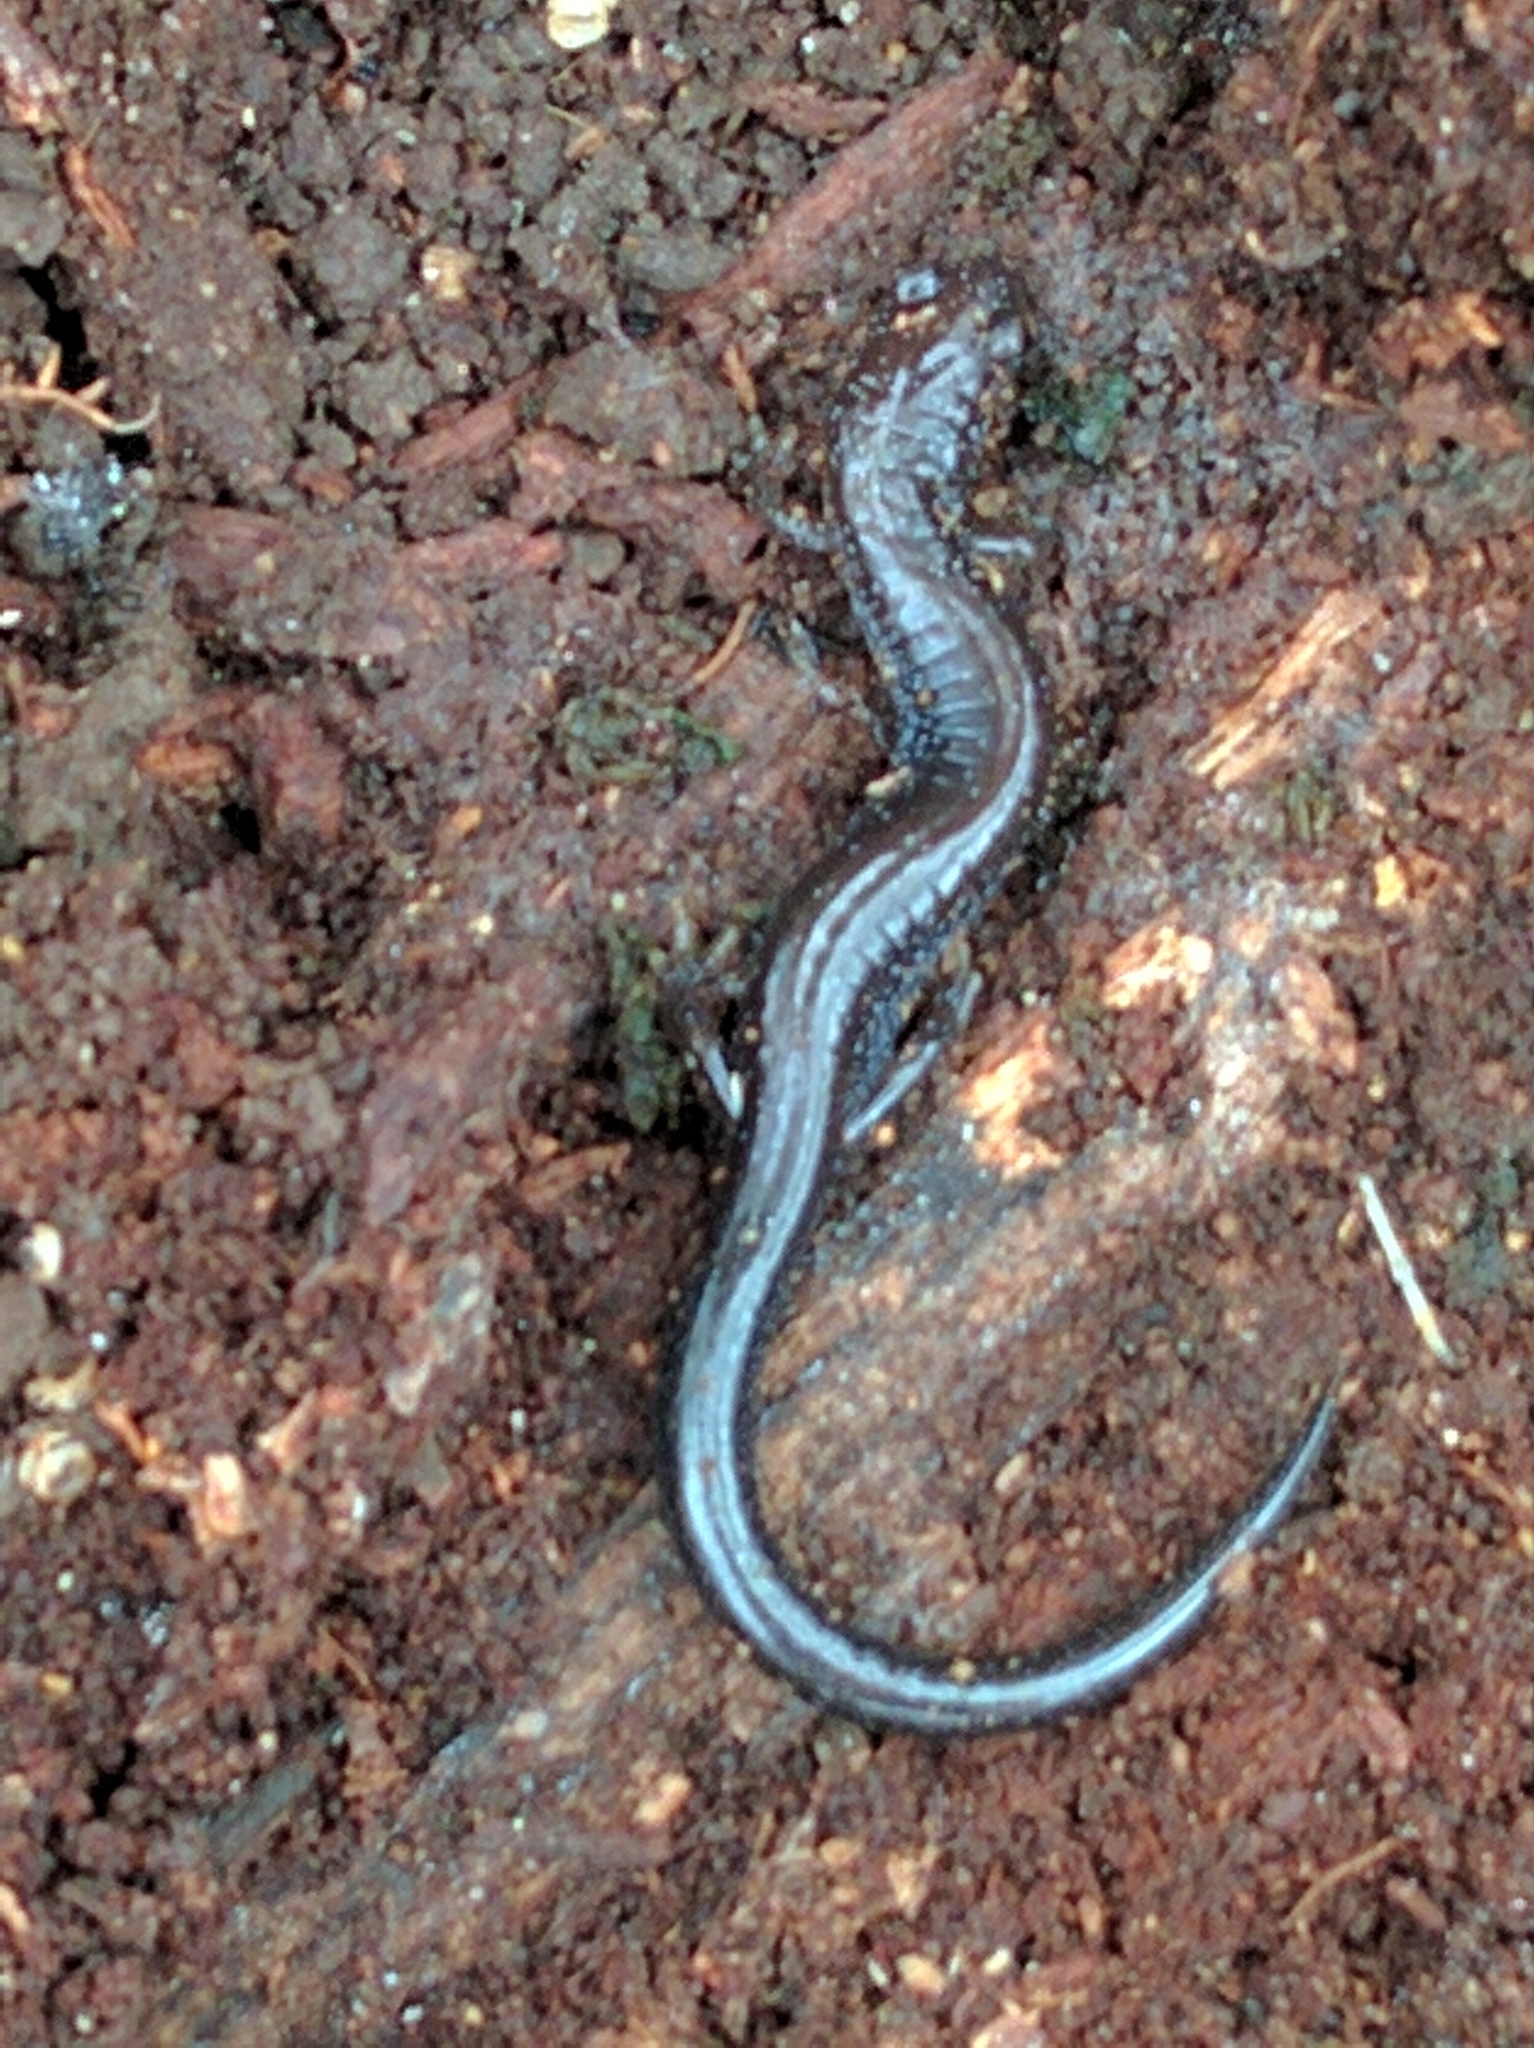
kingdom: Animalia
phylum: Chordata
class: Amphibia
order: Caudata
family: Plethodontidae
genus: Plethodon
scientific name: Plethodon cinereus
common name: Redback salamander
